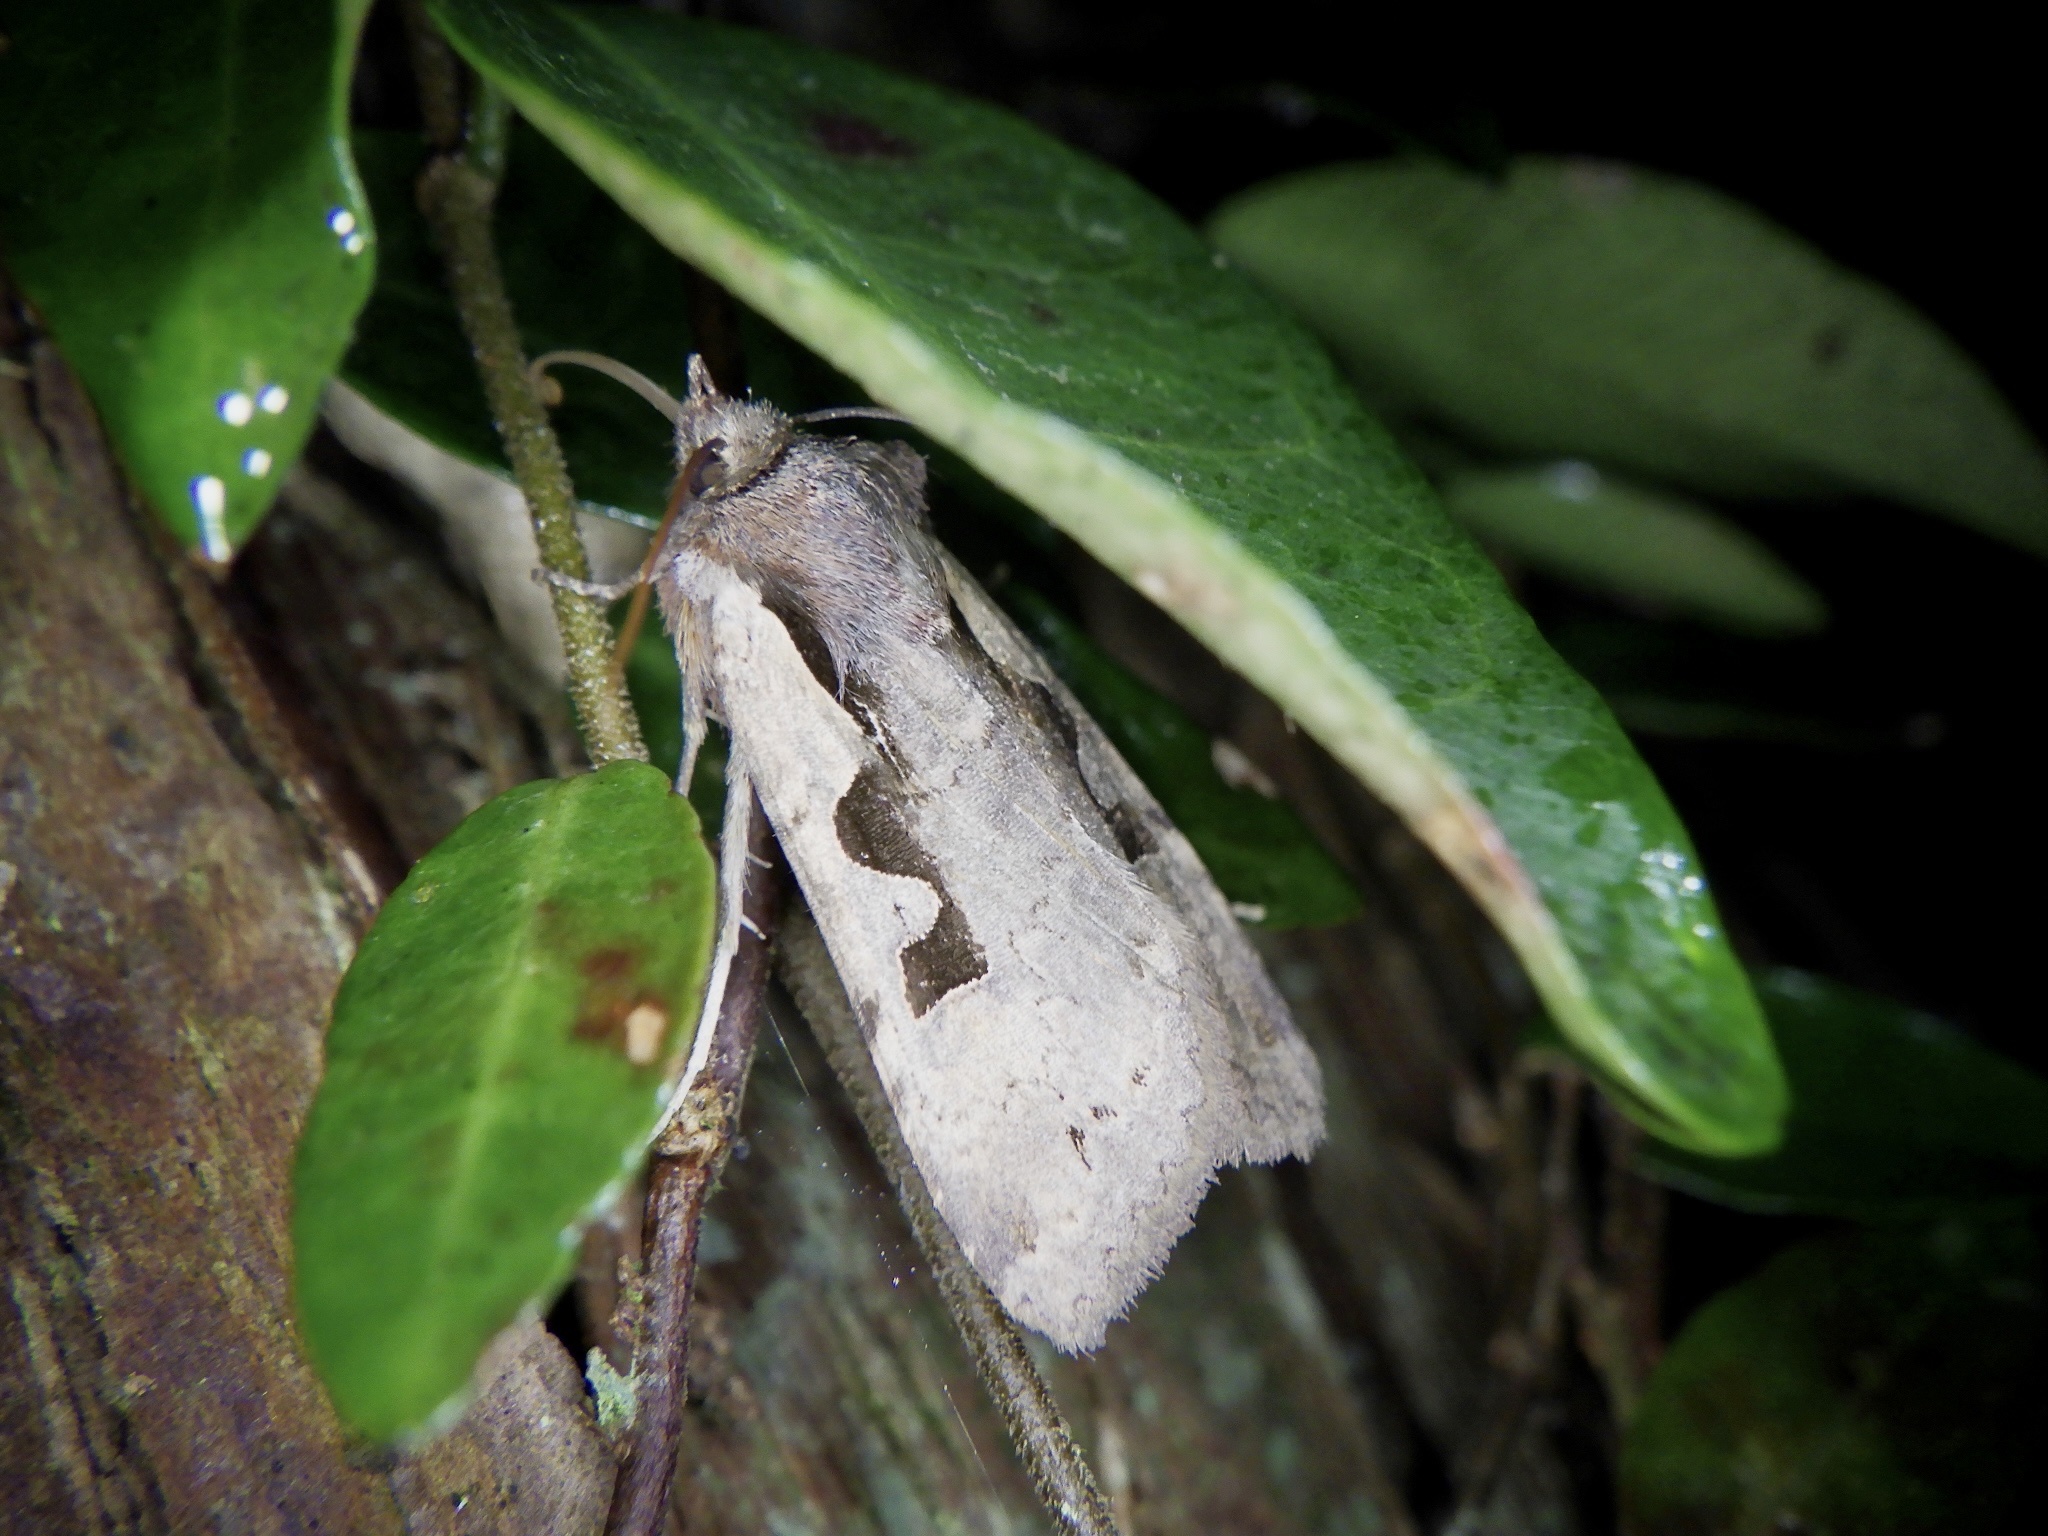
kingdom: Animalia
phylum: Arthropoda
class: Insecta
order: Lepidoptera
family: Noctuidae
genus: Sugitania
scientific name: Sugitania lepida
